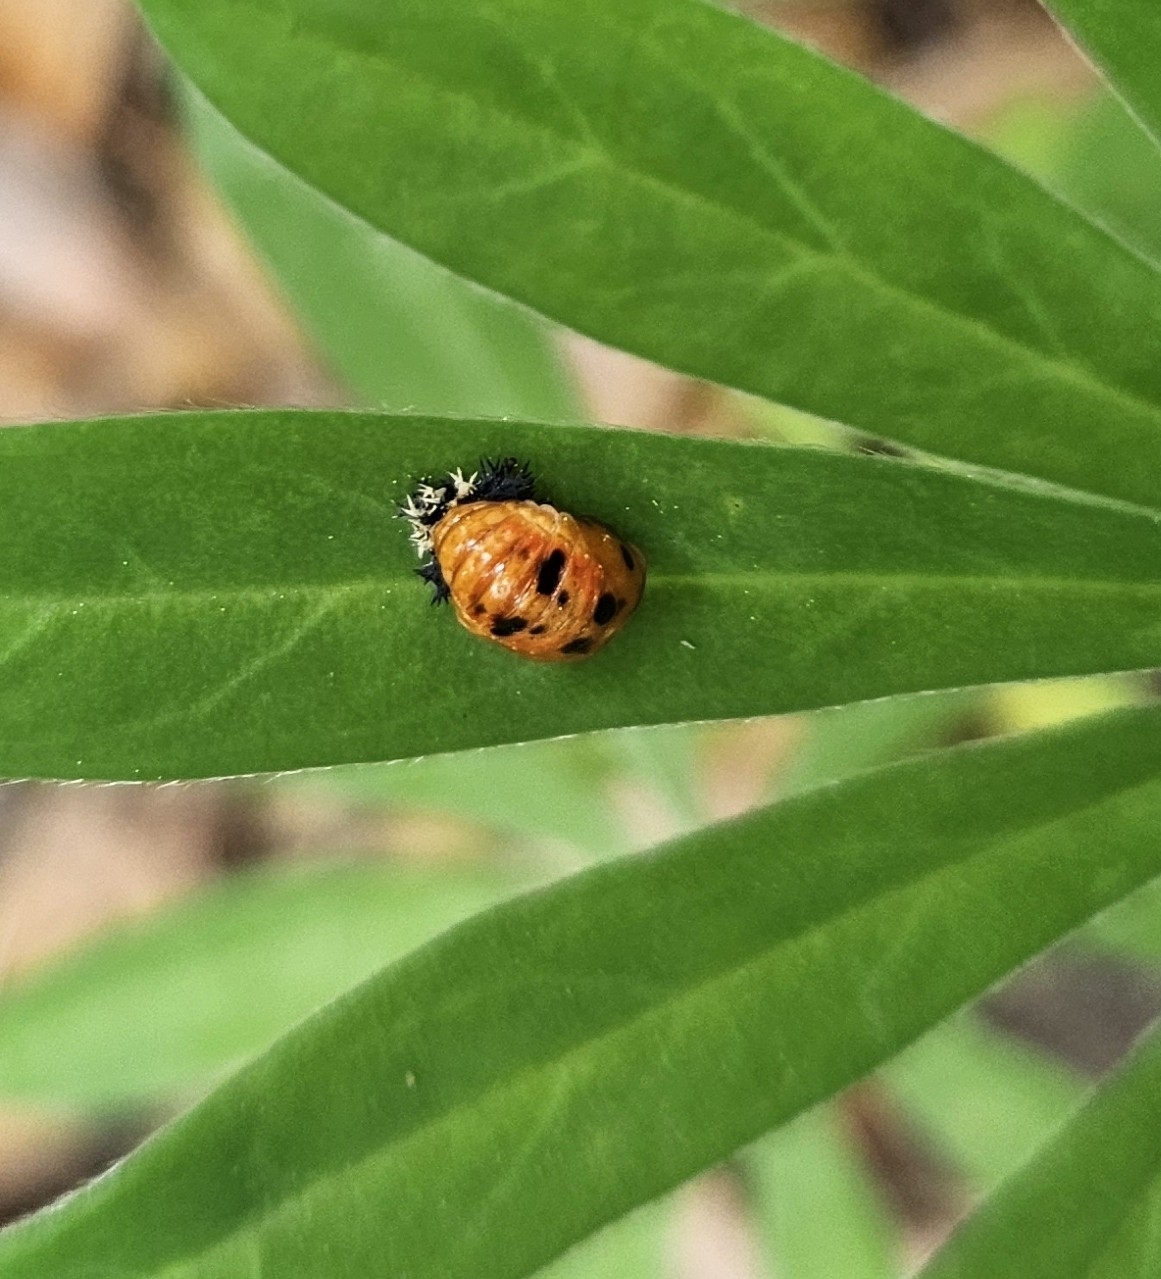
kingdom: Animalia
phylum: Arthropoda
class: Insecta
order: Coleoptera
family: Coccinellidae
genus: Harmonia
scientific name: Harmonia axyridis
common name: Harlequin ladybird
